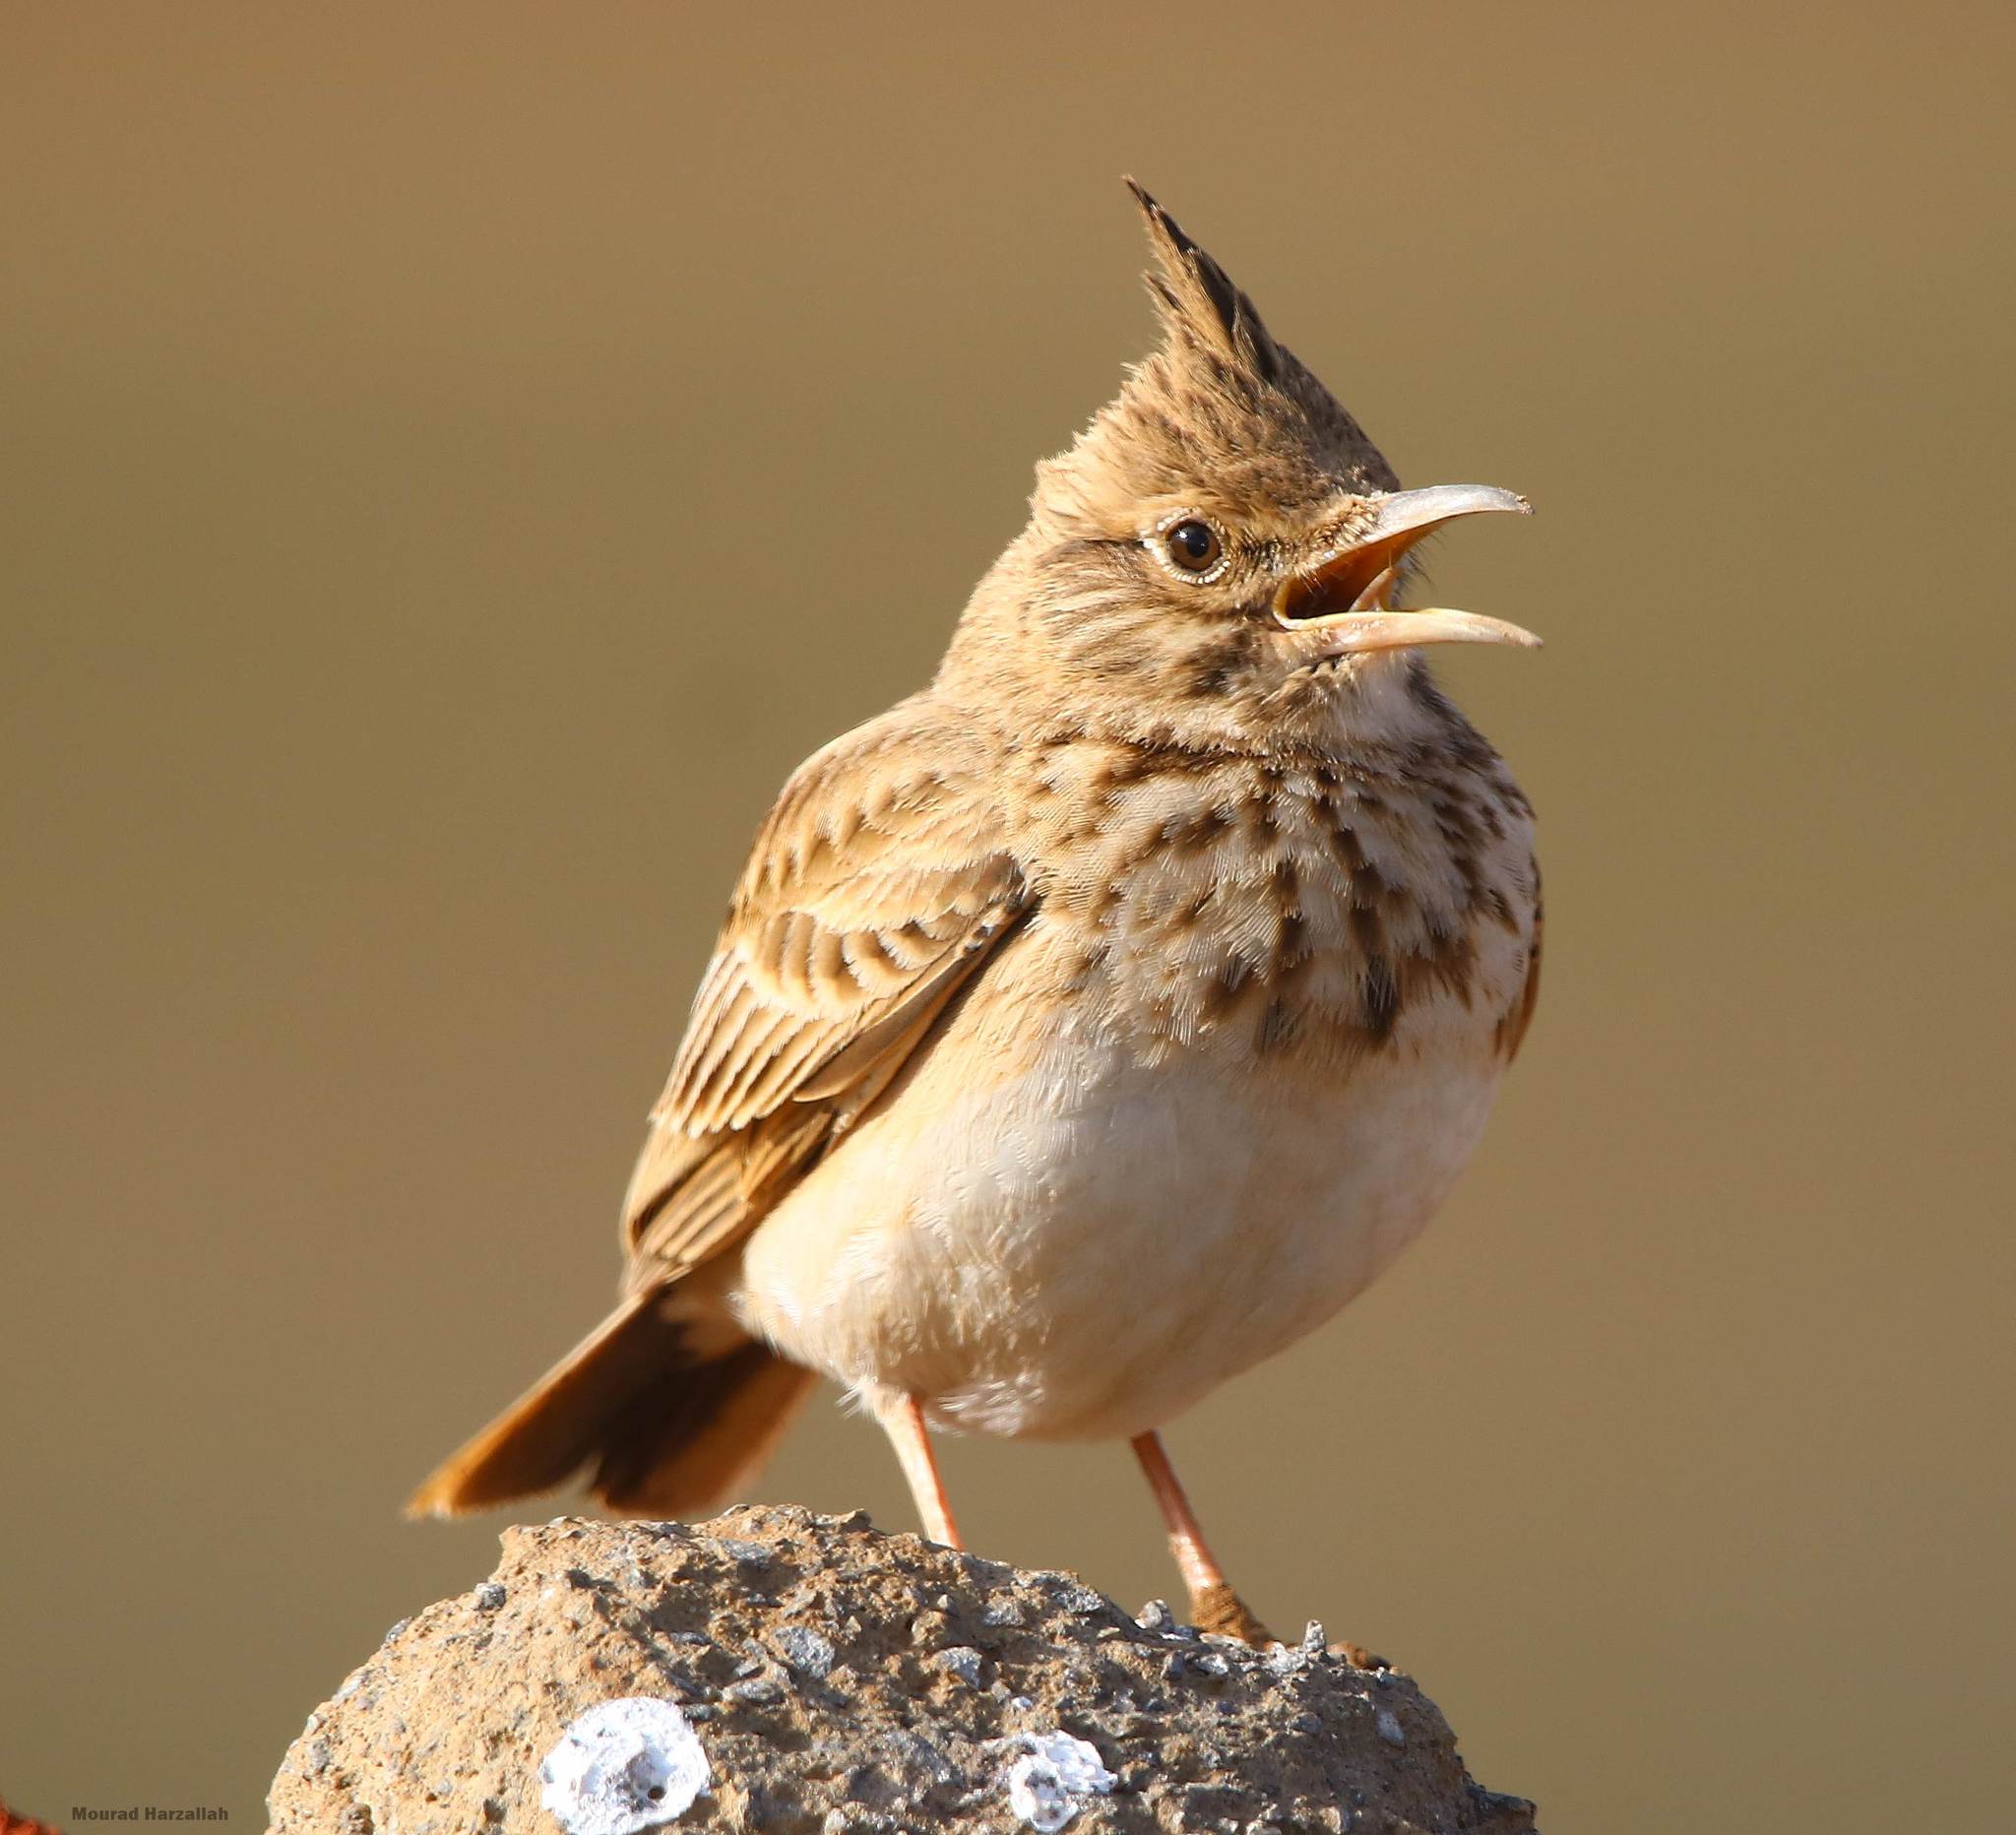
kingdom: Animalia
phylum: Chordata
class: Aves
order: Passeriformes
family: Alaudidae
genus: Galerida
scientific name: Galerida cristata
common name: Crested lark
